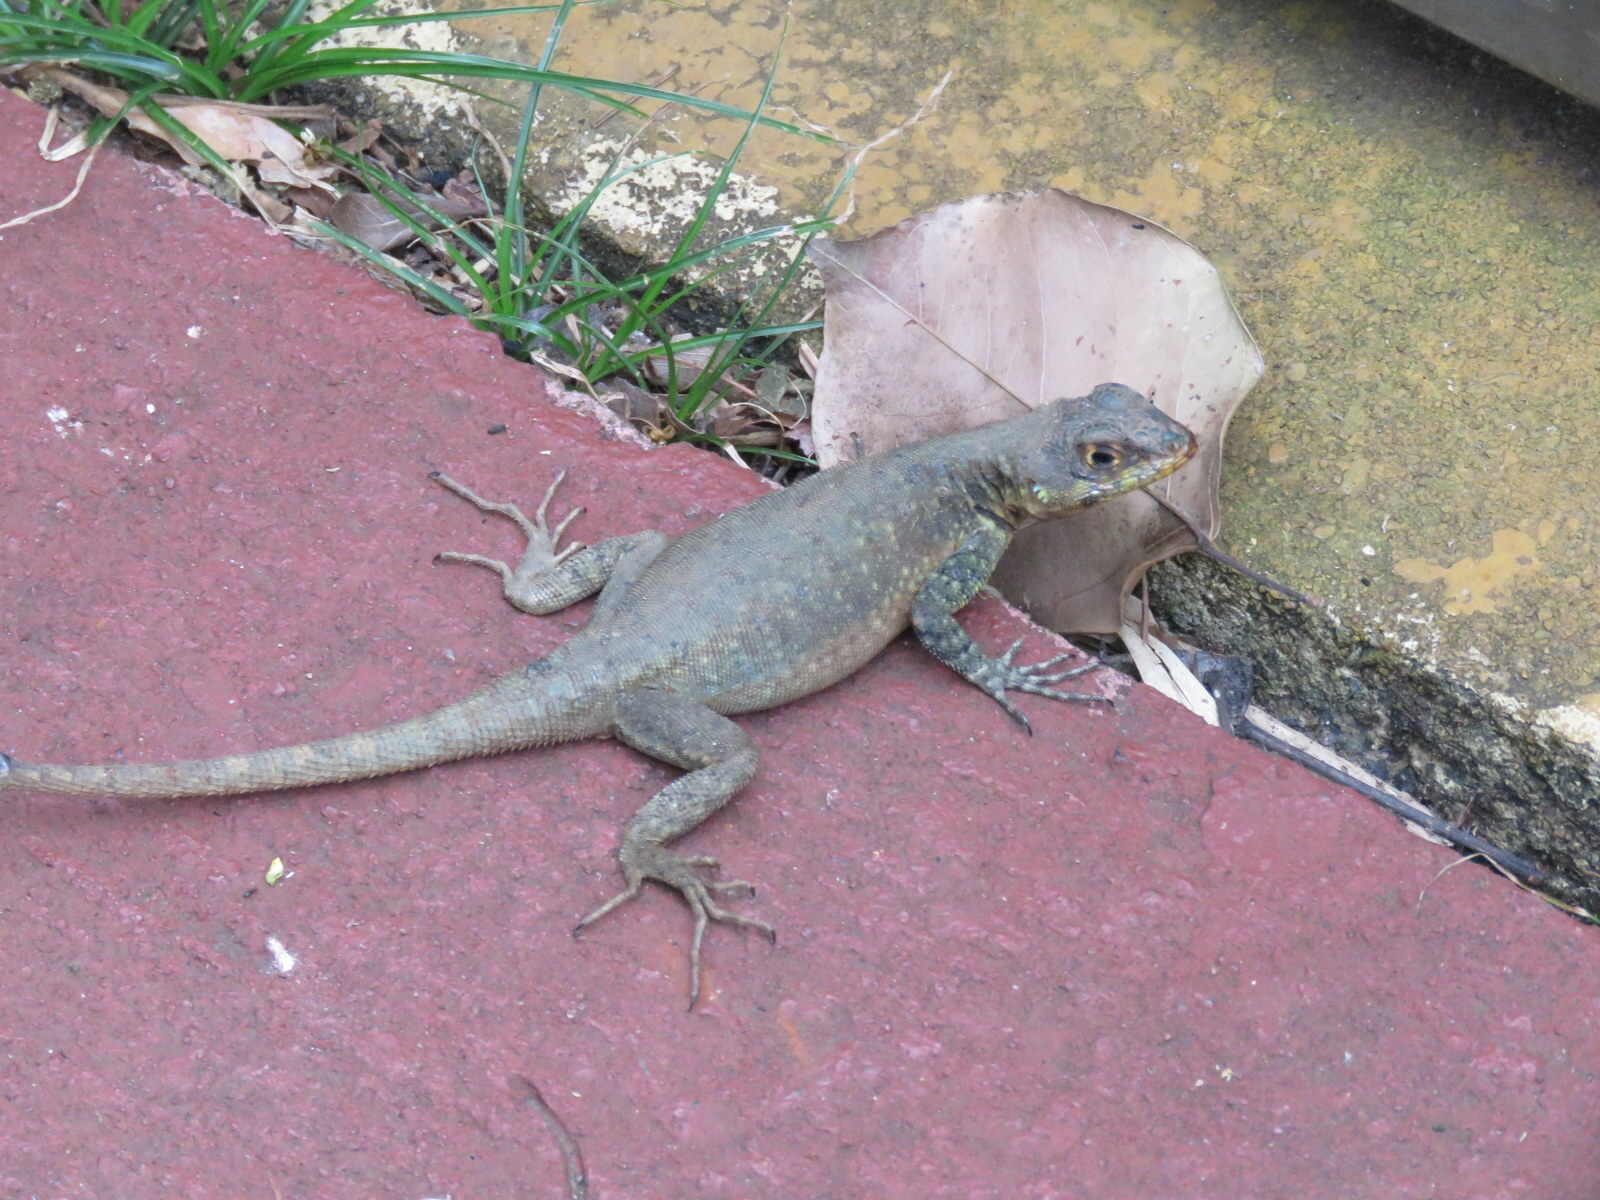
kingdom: Animalia
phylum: Chordata
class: Squamata
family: Tropiduridae
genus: Tropidurus
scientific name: Tropidurus catalanensis
